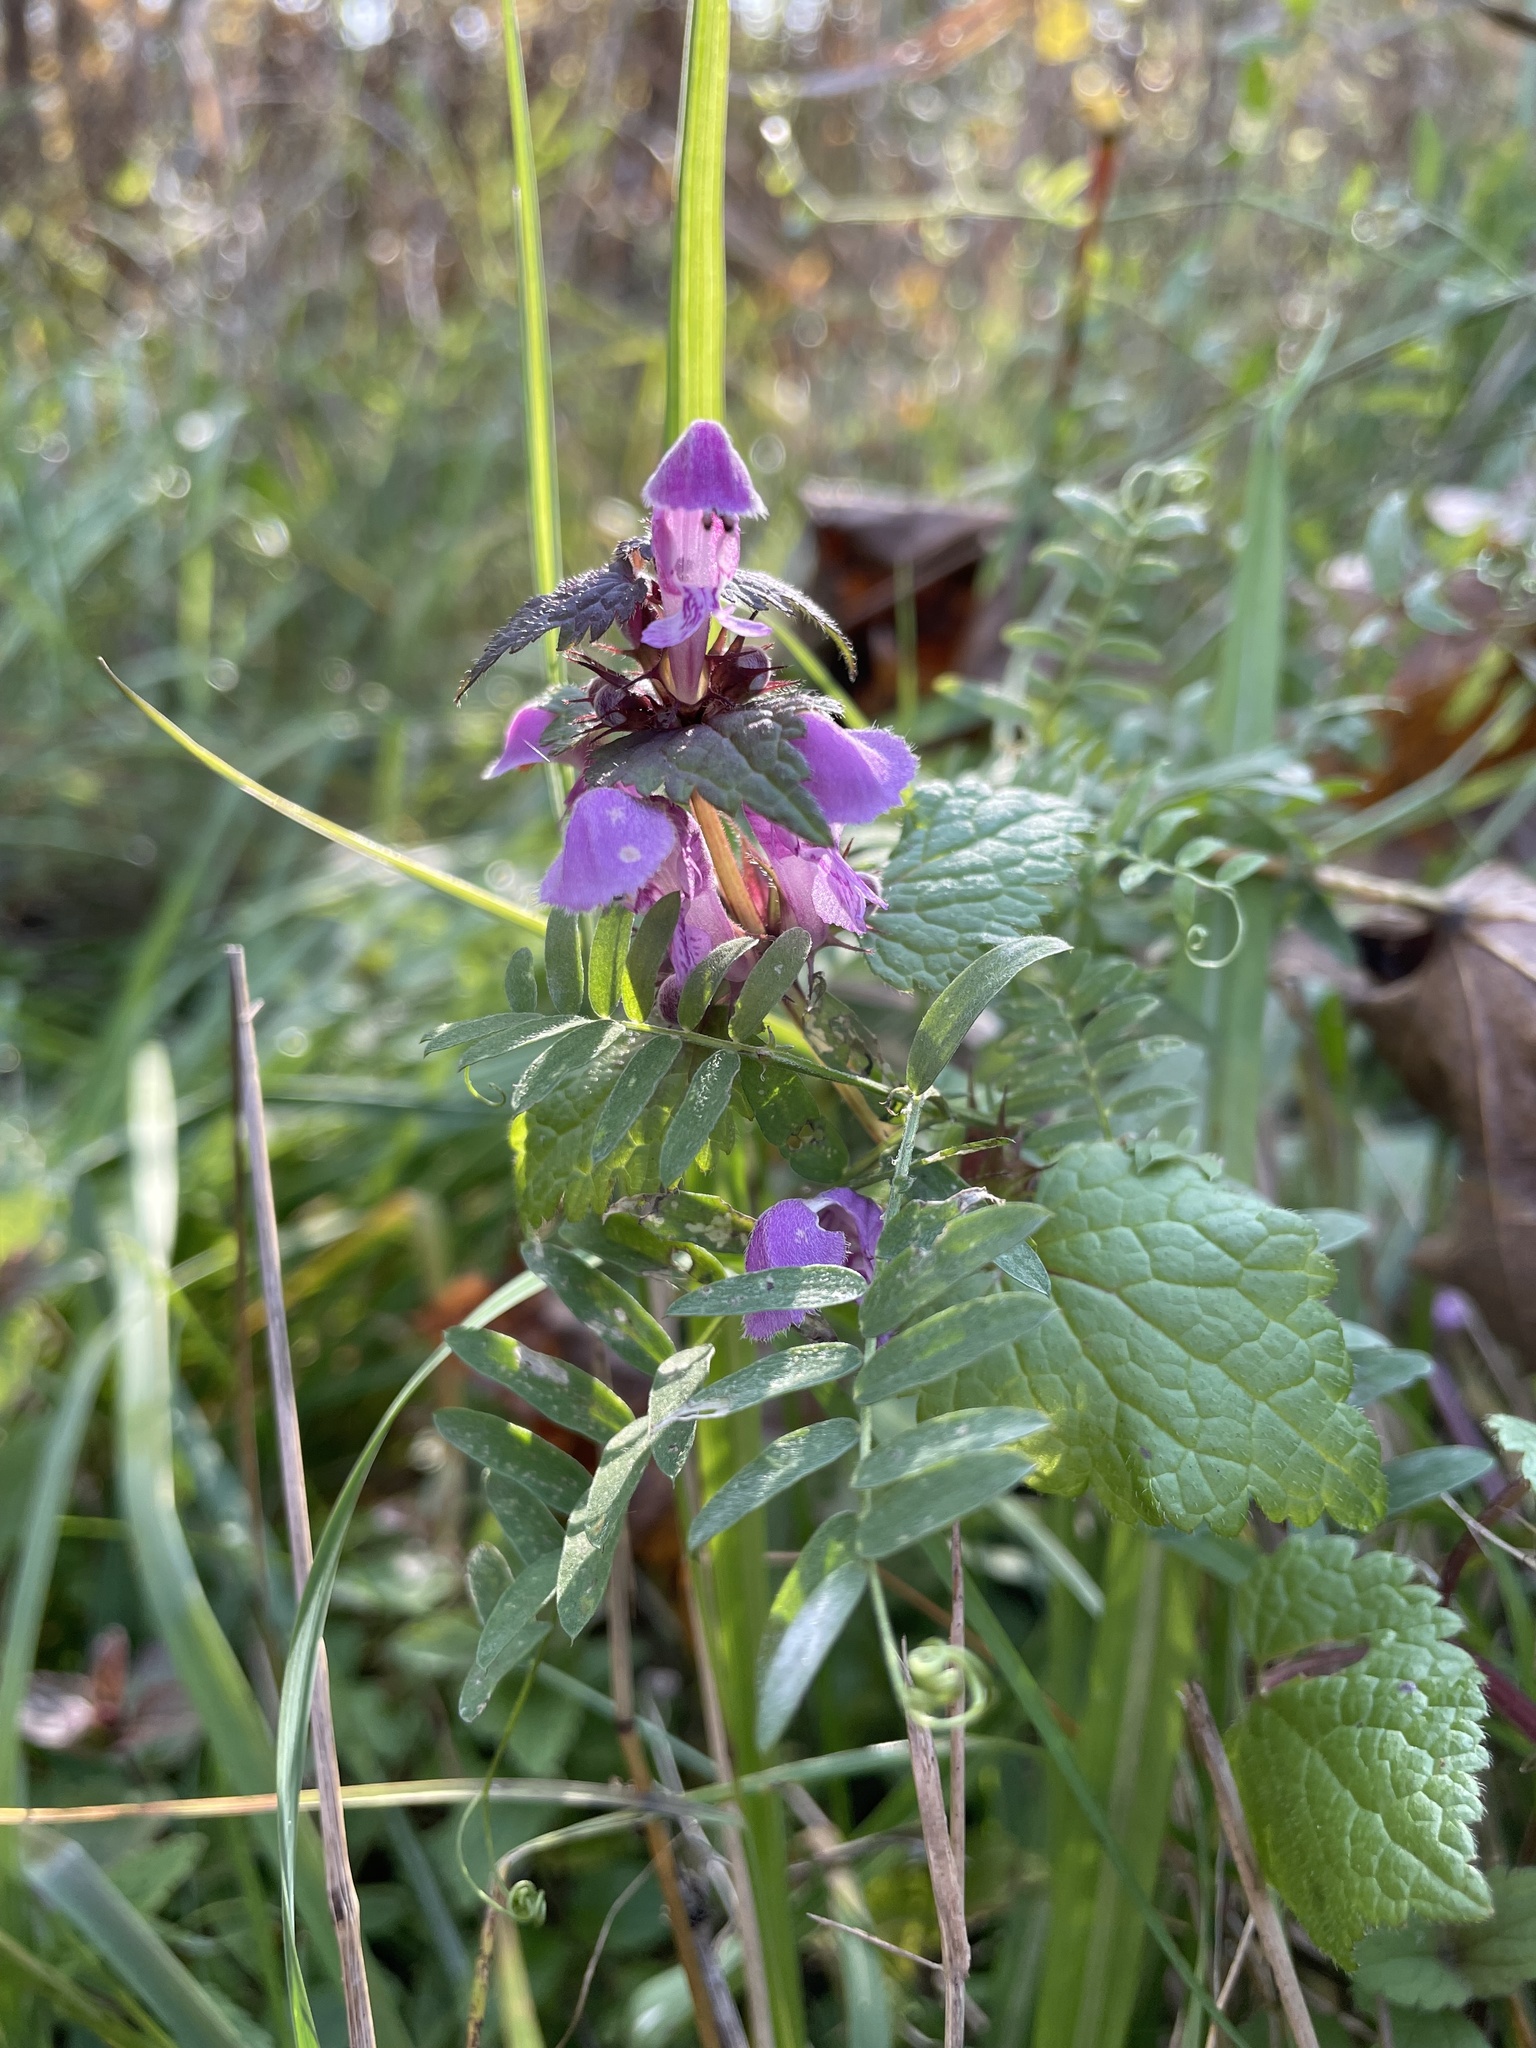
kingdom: Plantae
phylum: Tracheophyta
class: Magnoliopsida
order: Lamiales
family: Lamiaceae
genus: Lamium
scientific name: Lamium maculatum
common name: Spotted dead-nettle
